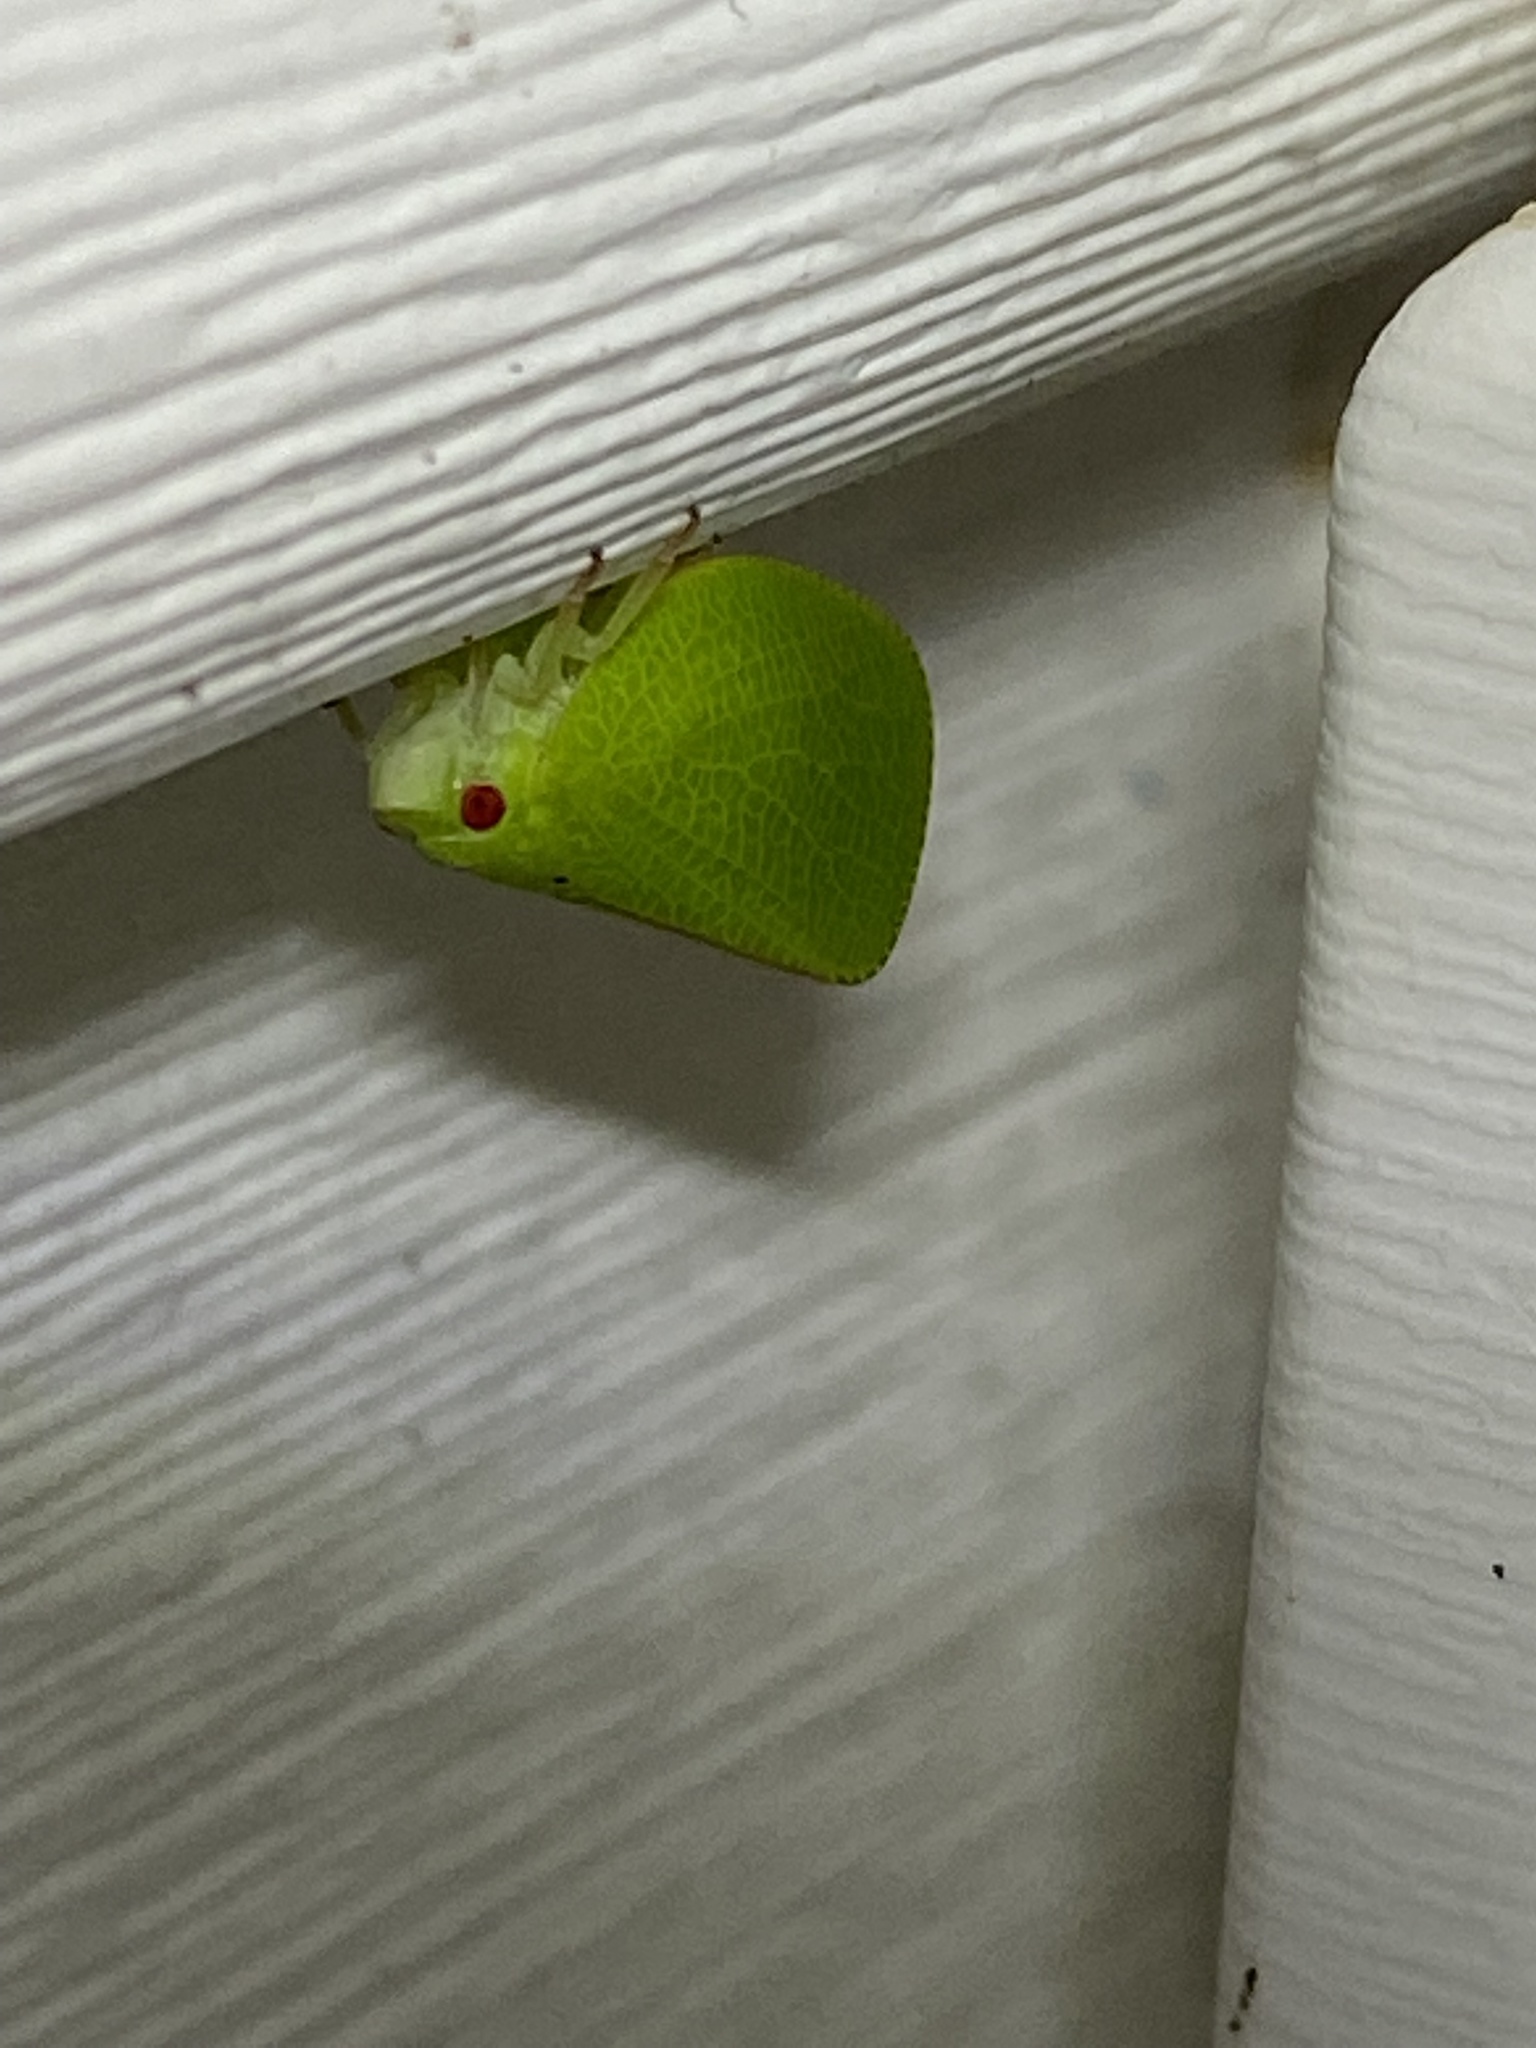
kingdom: Animalia
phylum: Arthropoda
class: Insecta
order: Hemiptera
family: Acanaloniidae
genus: Acanalonia
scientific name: Acanalonia conica
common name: Green cone-headed planthopper
